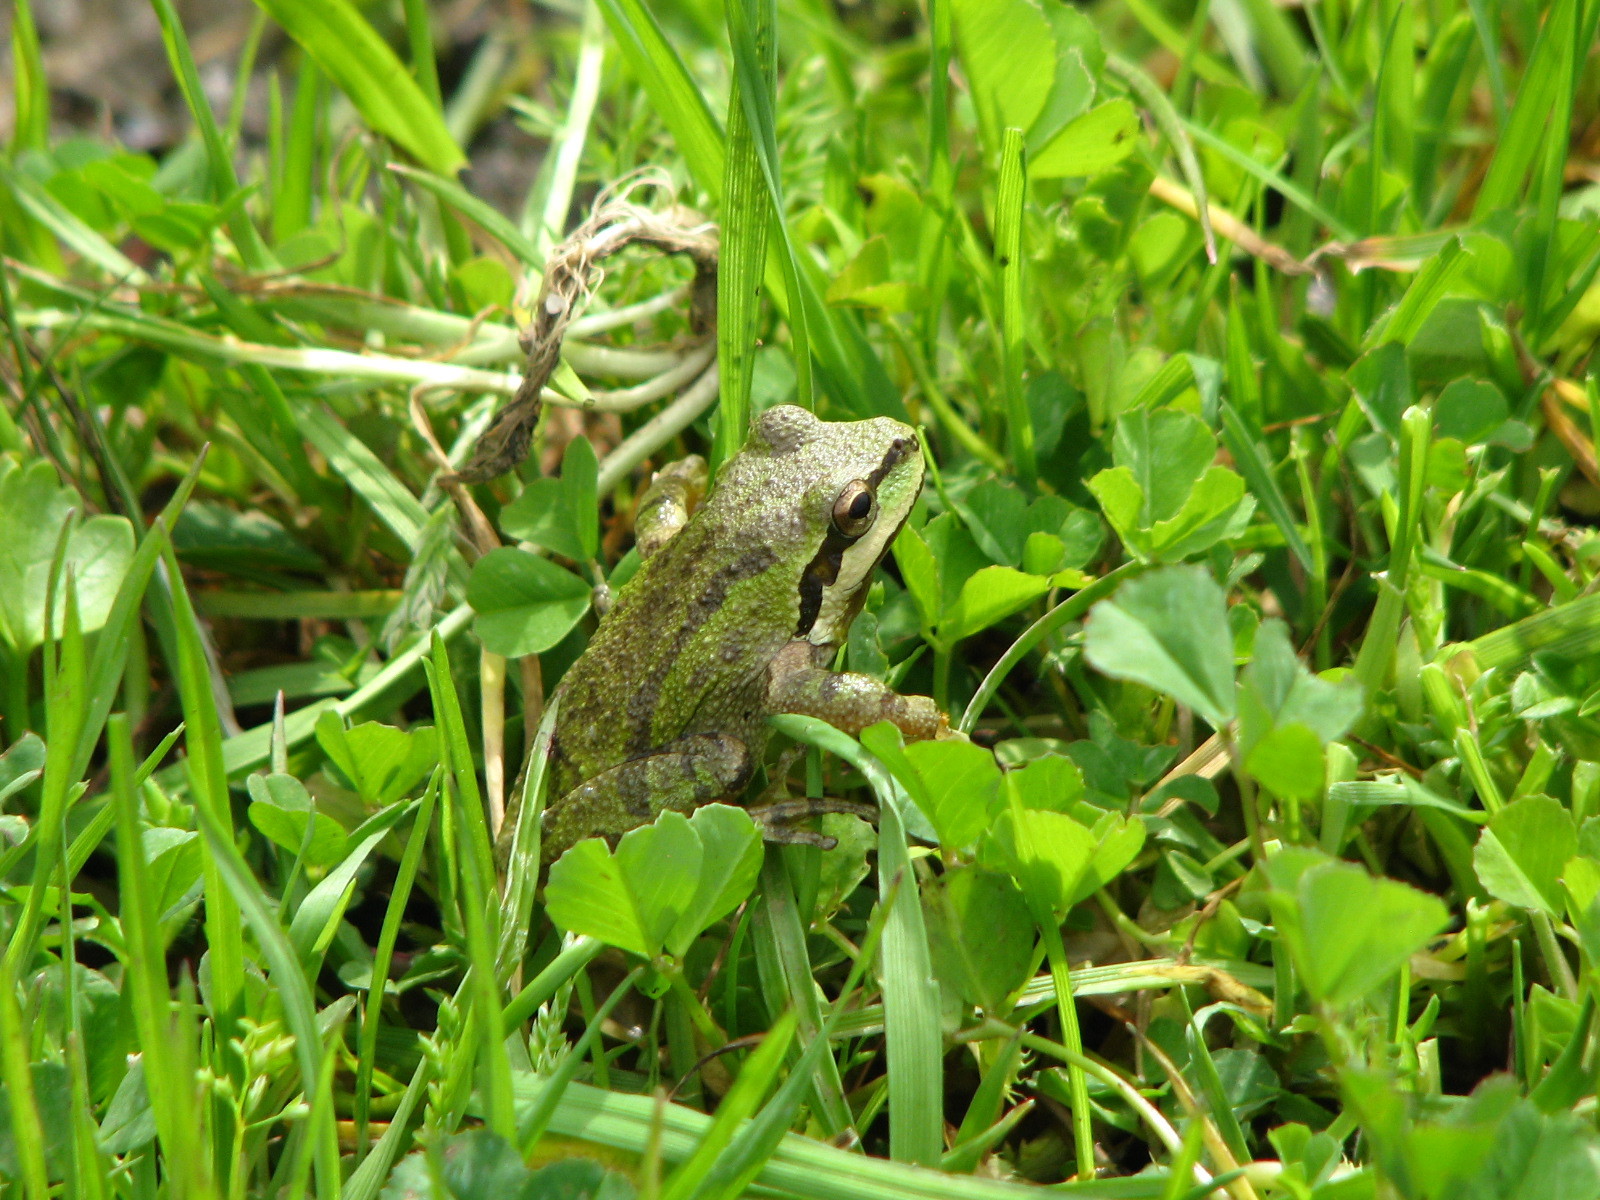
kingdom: Animalia
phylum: Chordata
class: Amphibia
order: Anura
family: Hylidae
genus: Pseudacris
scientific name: Pseudacris regilla
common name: Pacific chorus frog
